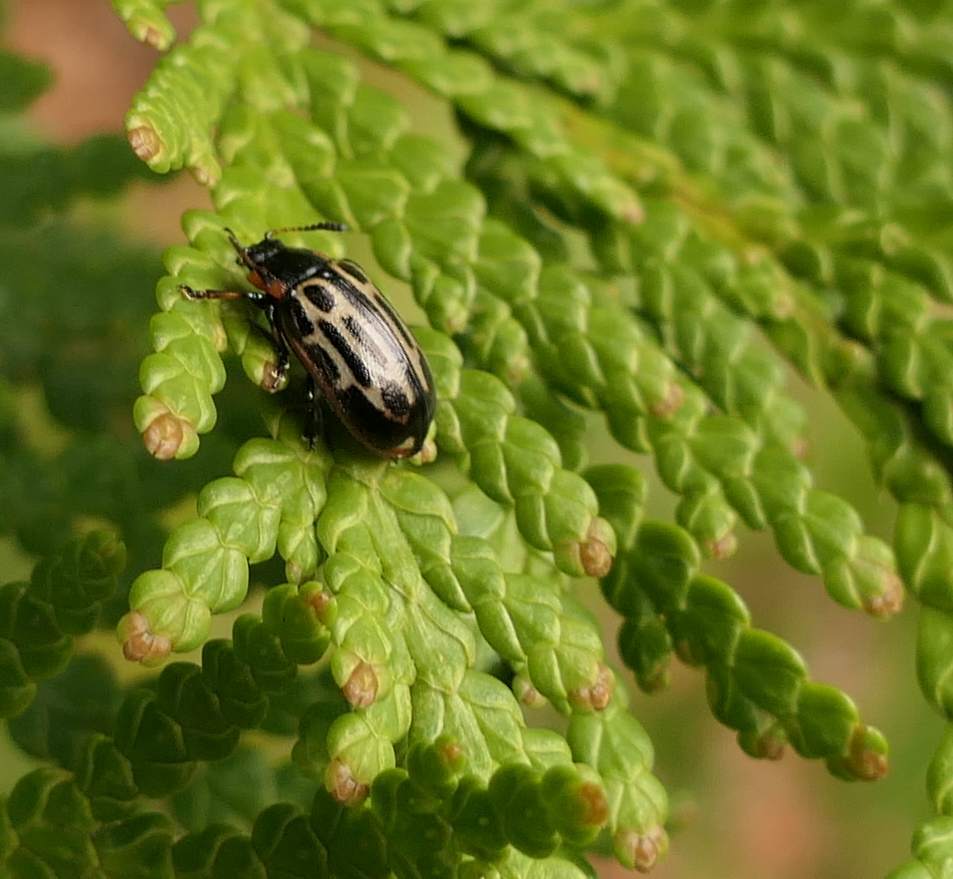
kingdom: Animalia
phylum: Arthropoda
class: Insecta
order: Coleoptera
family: Chrysomelidae
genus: Aethiopocassis
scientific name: Aethiopocassis scripta
